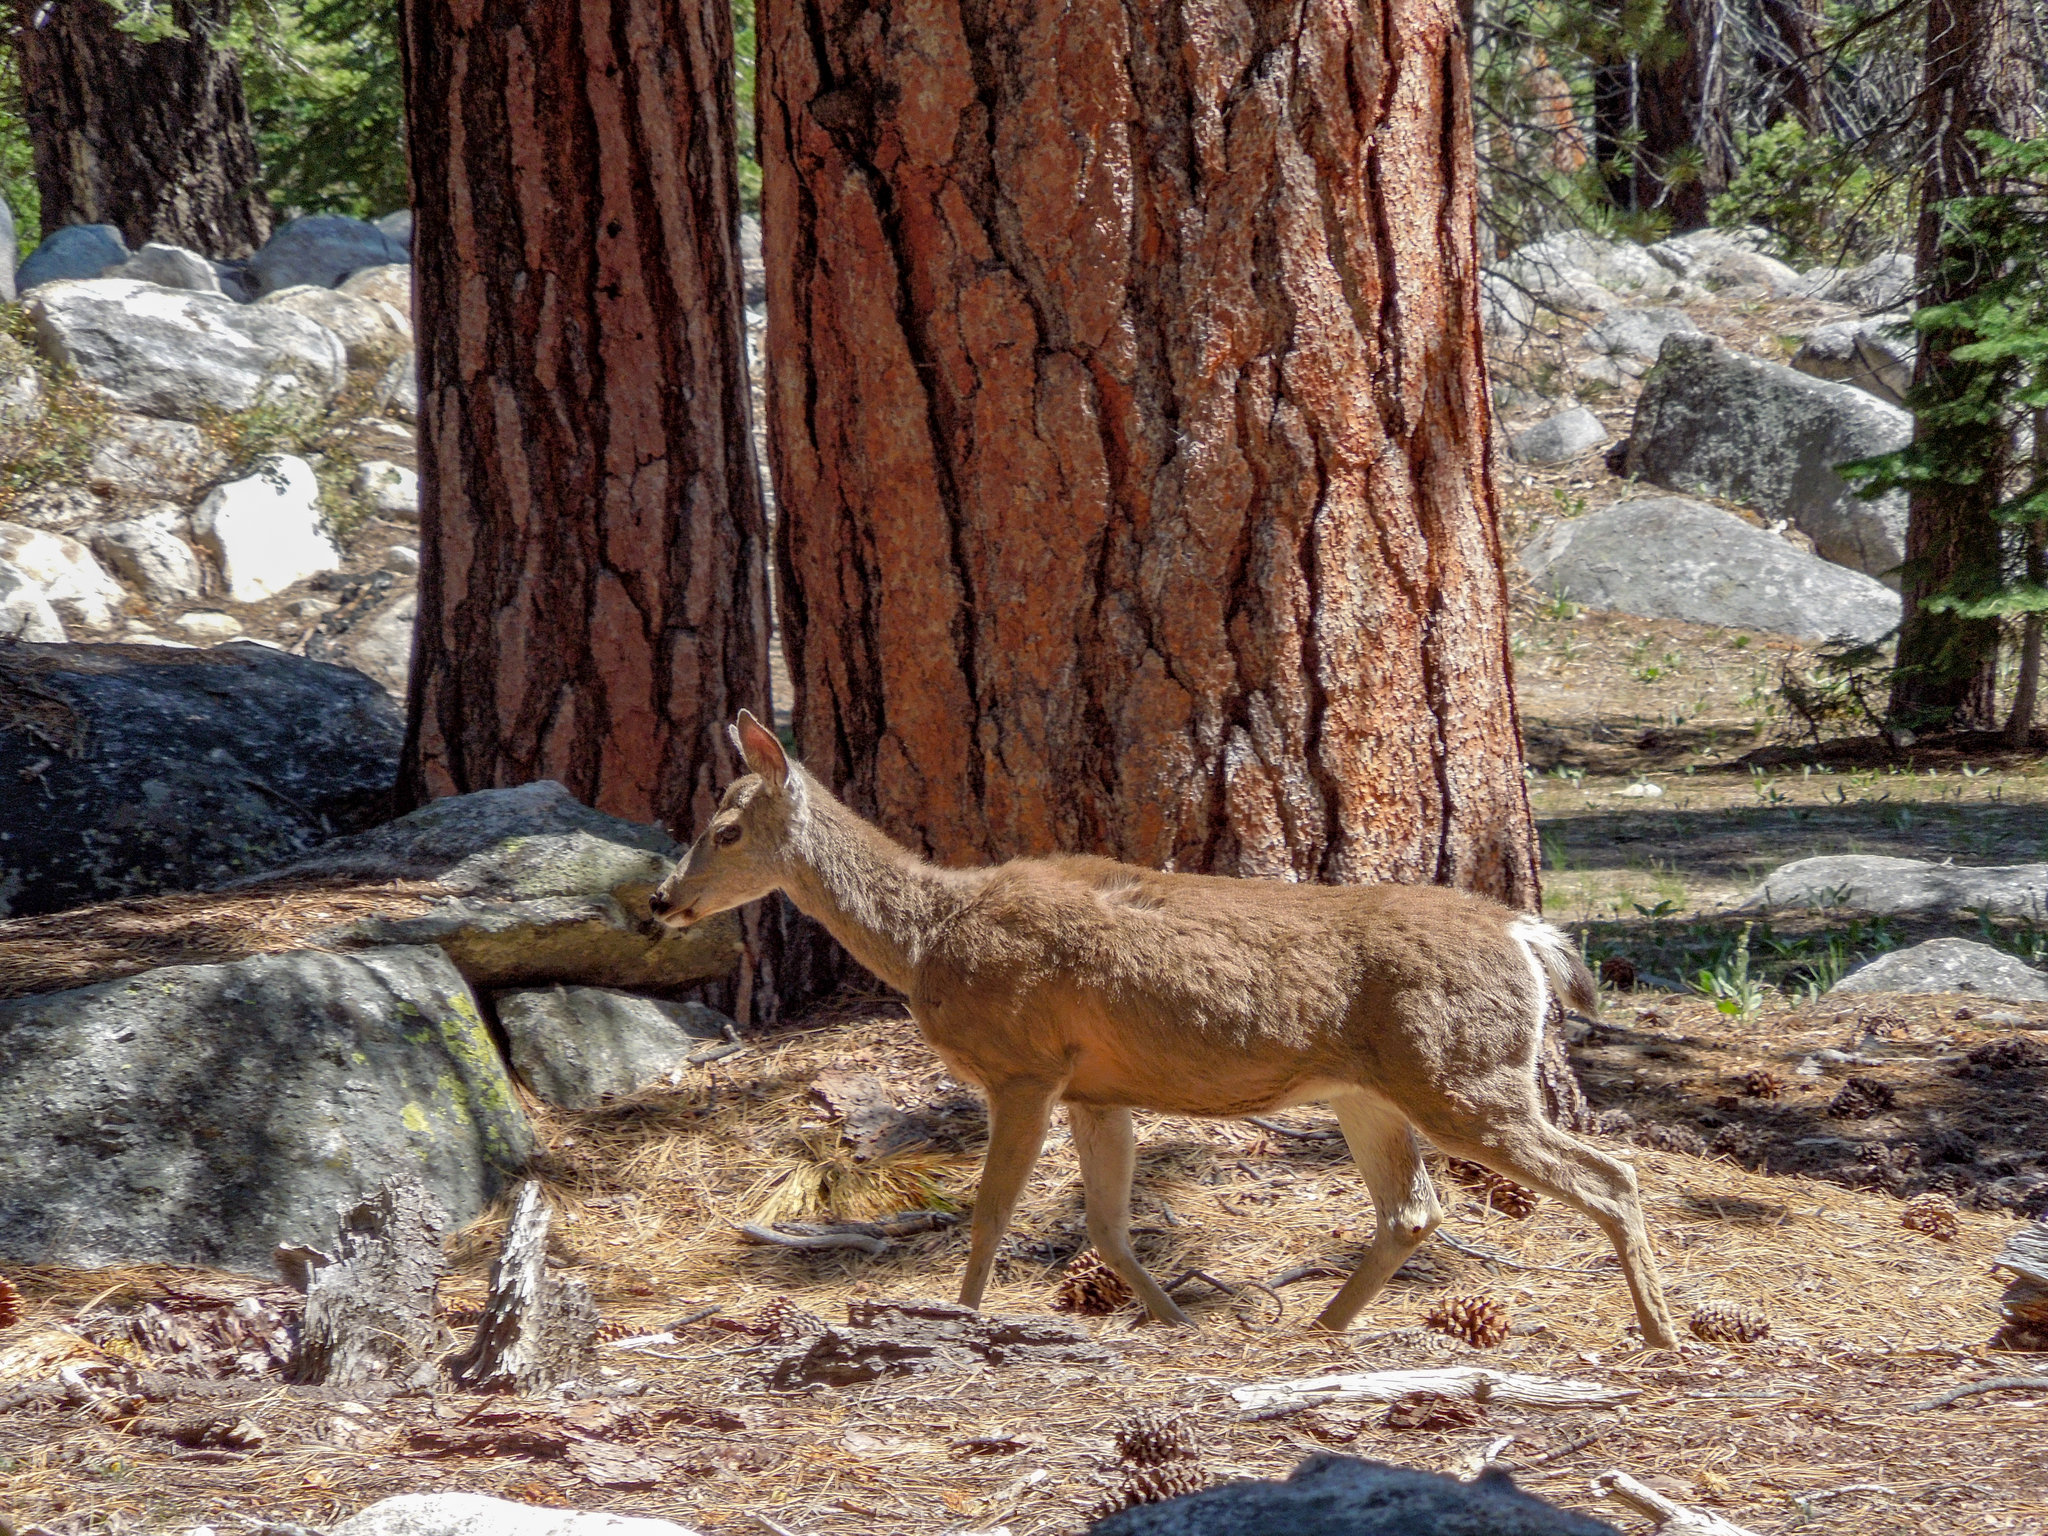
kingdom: Animalia
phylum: Chordata
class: Mammalia
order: Artiodactyla
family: Cervidae
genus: Odocoileus
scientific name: Odocoileus hemionus
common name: Mule deer
